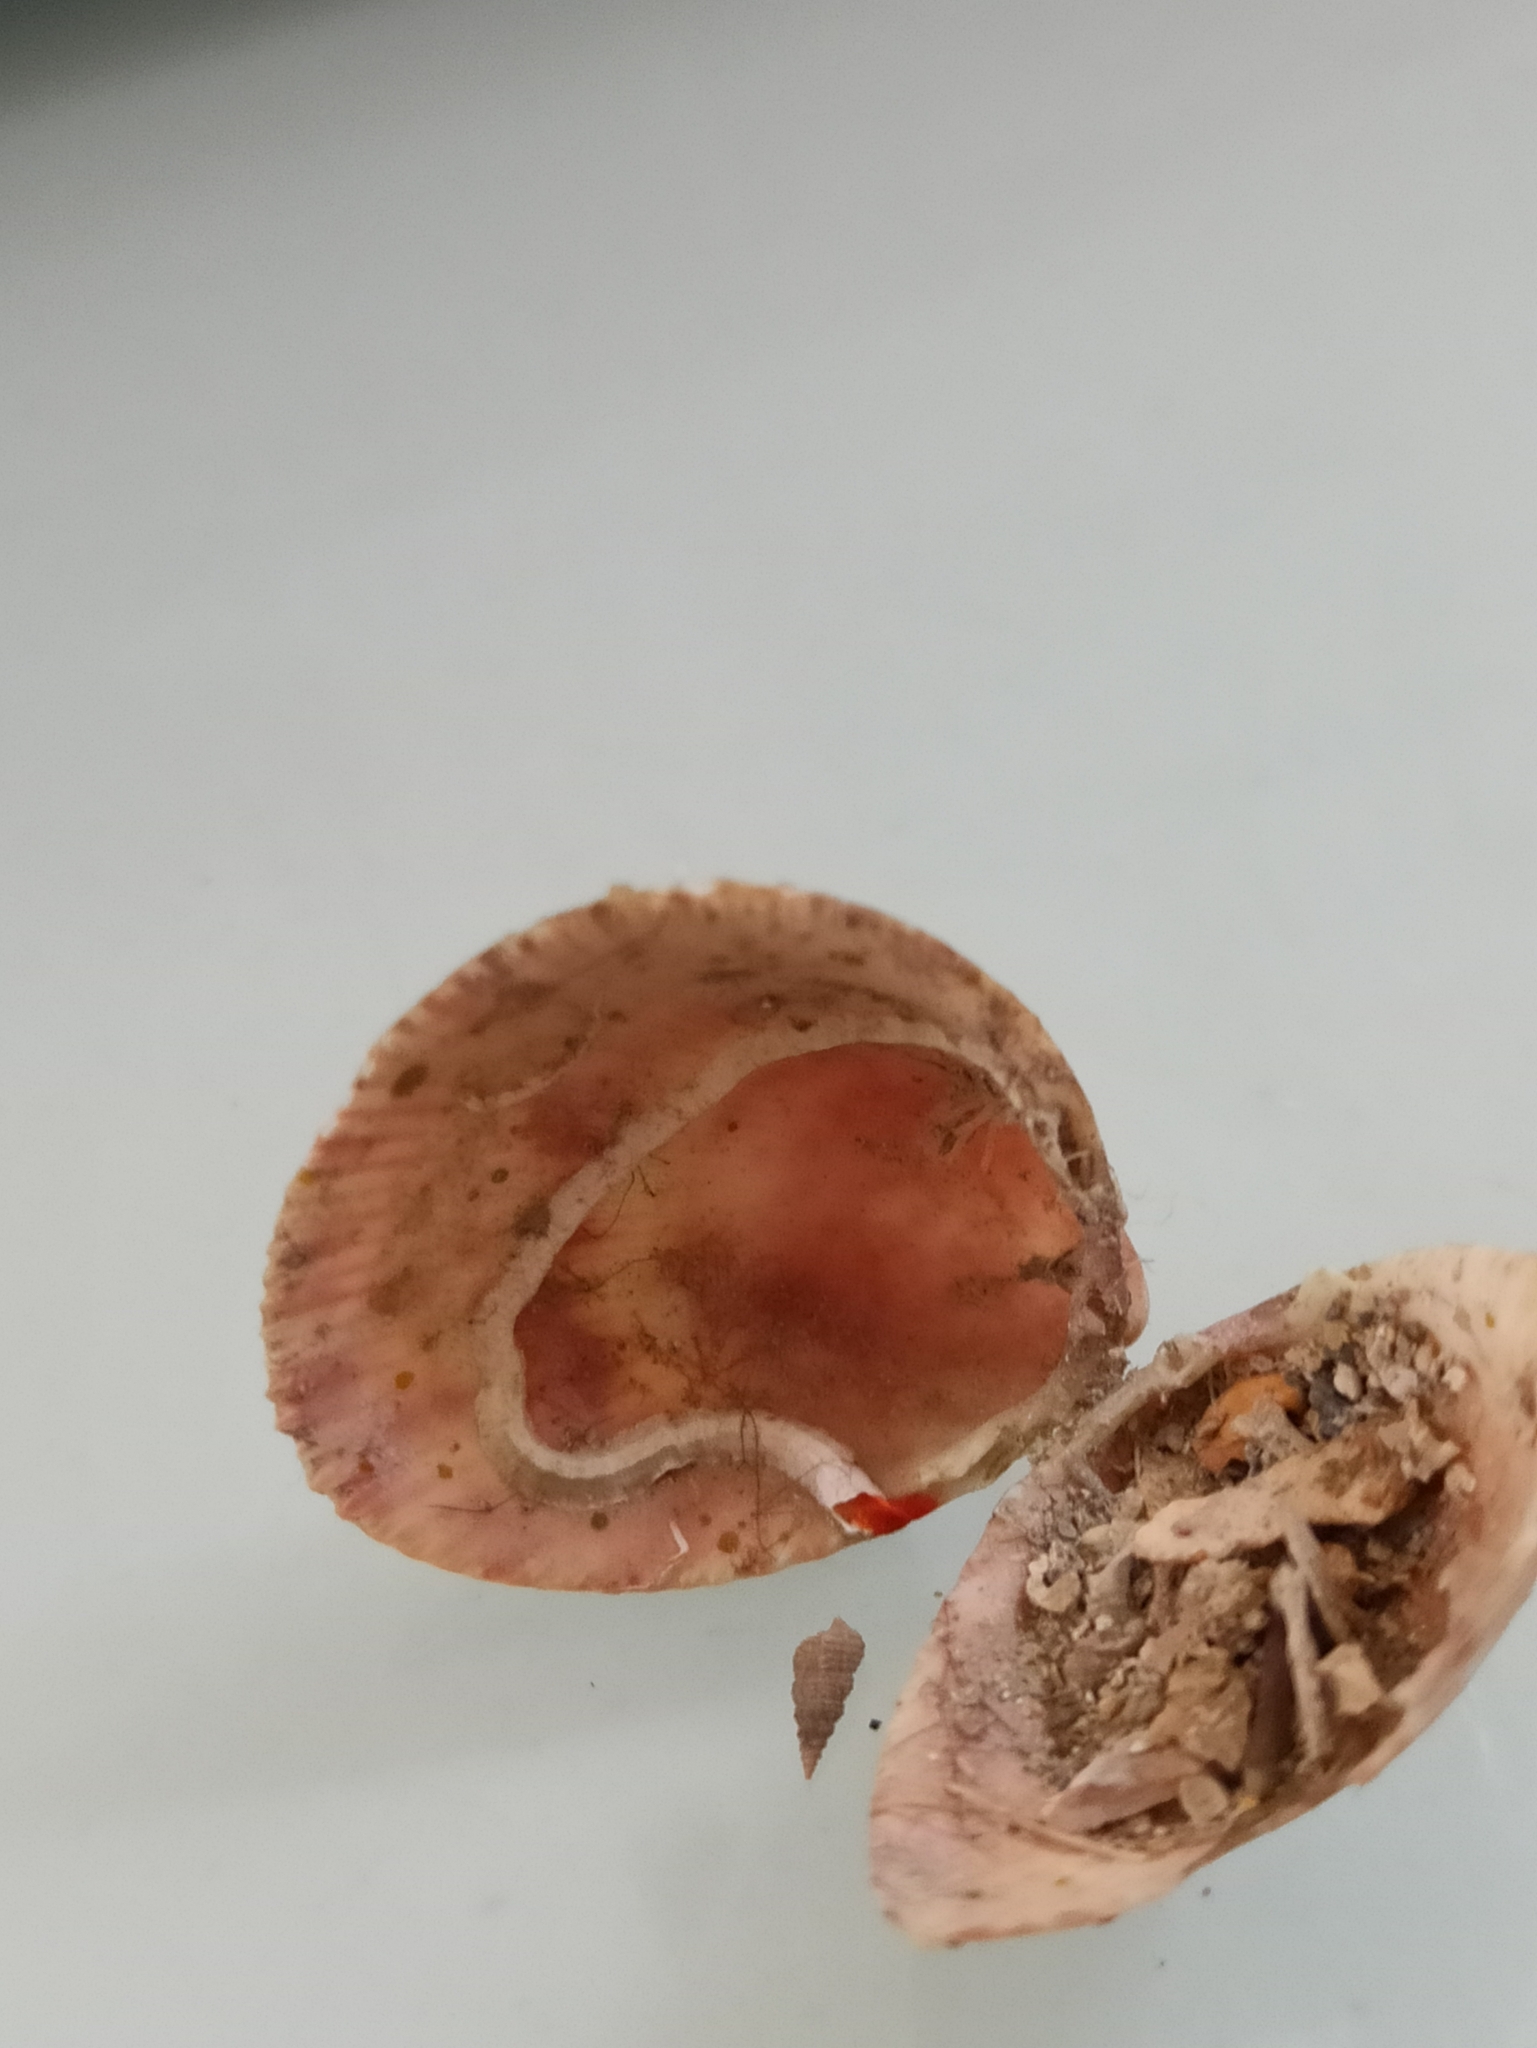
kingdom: Animalia
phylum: Mollusca
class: Bivalvia
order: Cardiida
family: Cardiidae
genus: Laevicardium
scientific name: Laevicardium crassum
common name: Norway cockle
